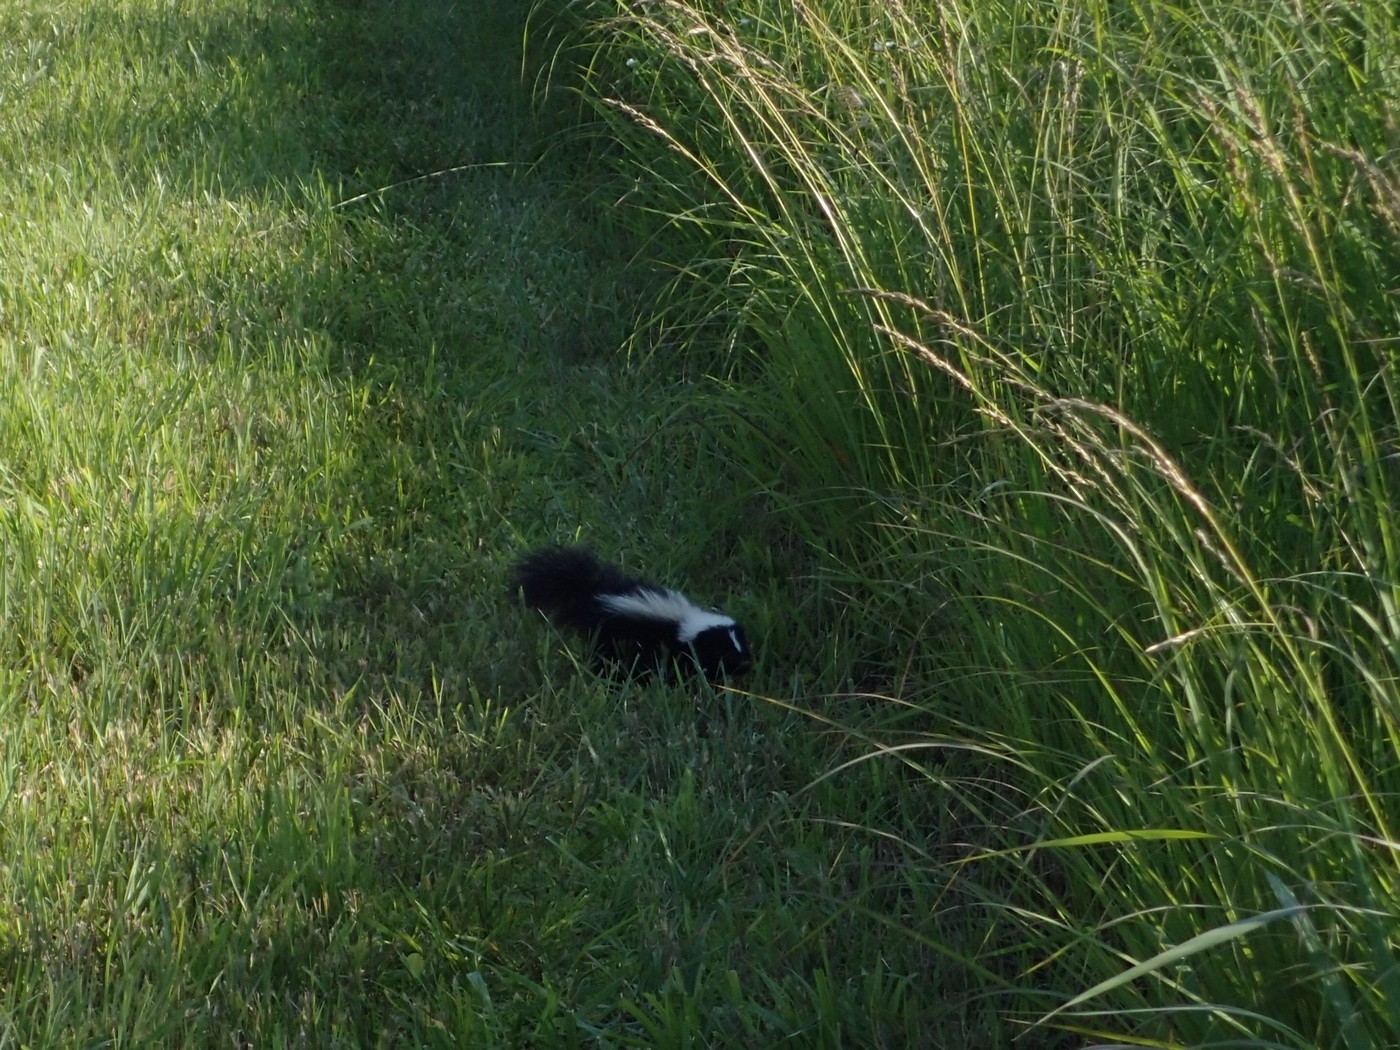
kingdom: Animalia
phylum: Chordata
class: Mammalia
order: Carnivora
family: Mephitidae
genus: Mephitis
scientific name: Mephitis mephitis
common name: Striped skunk
